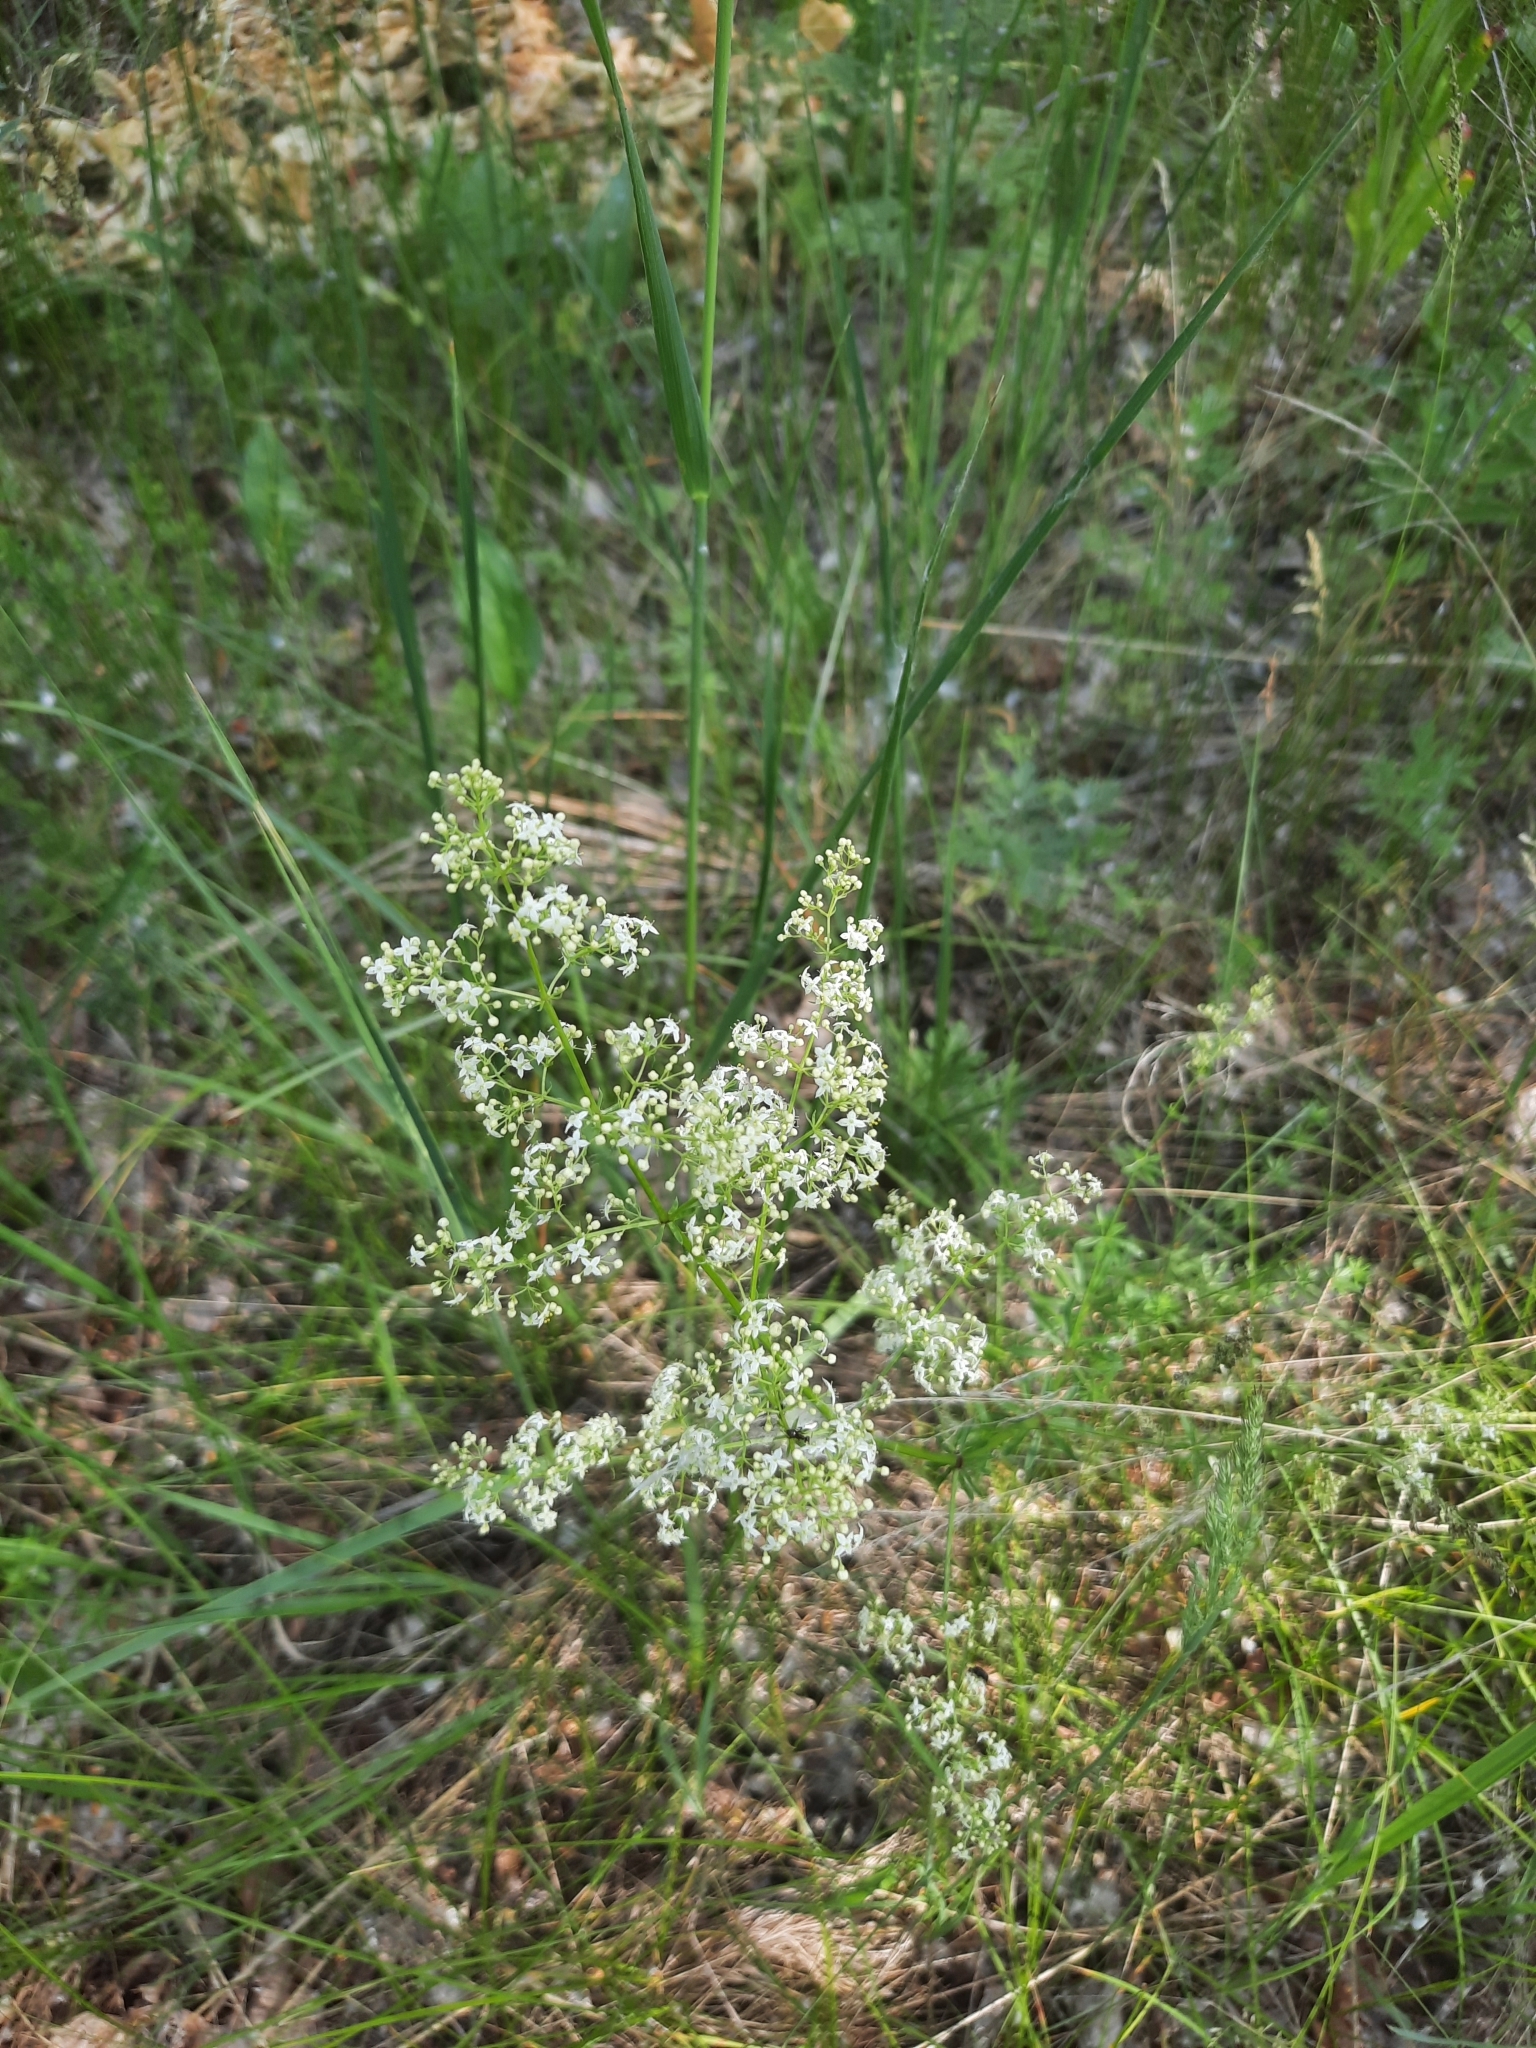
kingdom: Plantae
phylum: Tracheophyta
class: Magnoliopsida
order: Gentianales
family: Rubiaceae
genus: Galium
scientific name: Galium mollugo
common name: Hedge bedstraw
